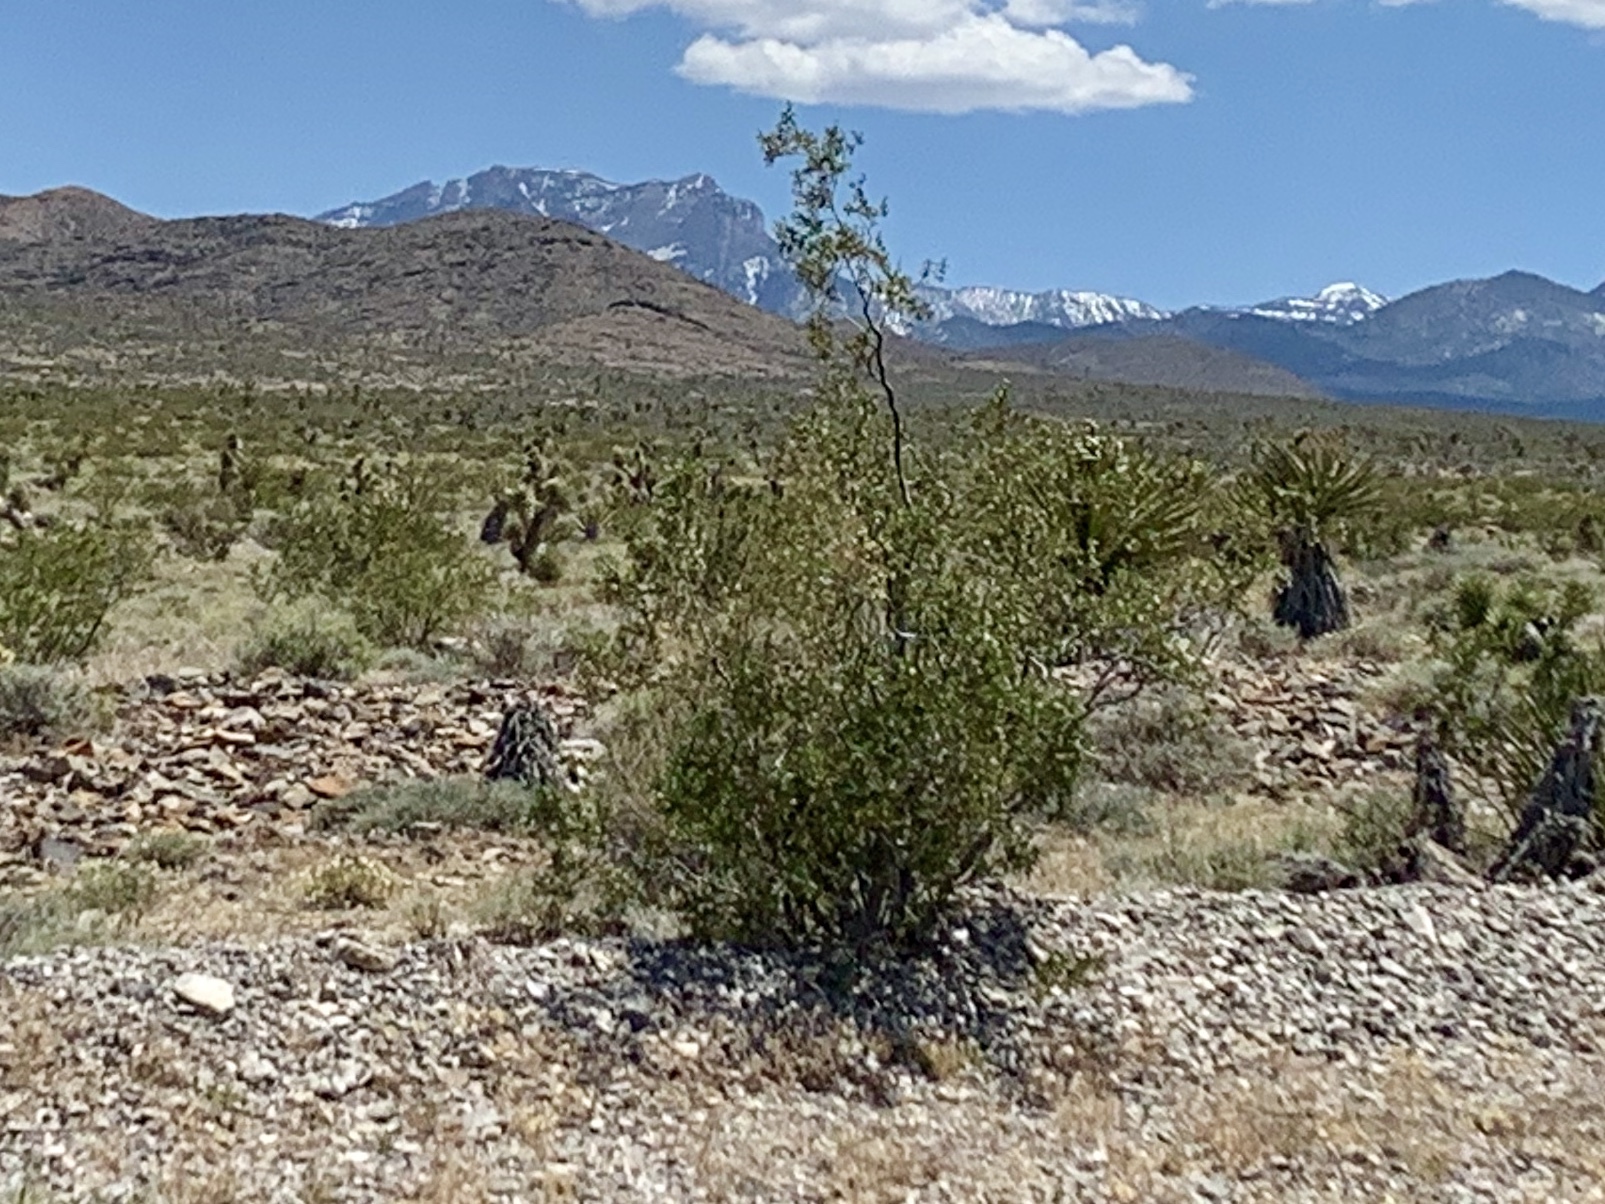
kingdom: Plantae
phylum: Tracheophyta
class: Magnoliopsida
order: Zygophyllales
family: Zygophyllaceae
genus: Larrea
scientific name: Larrea tridentata
